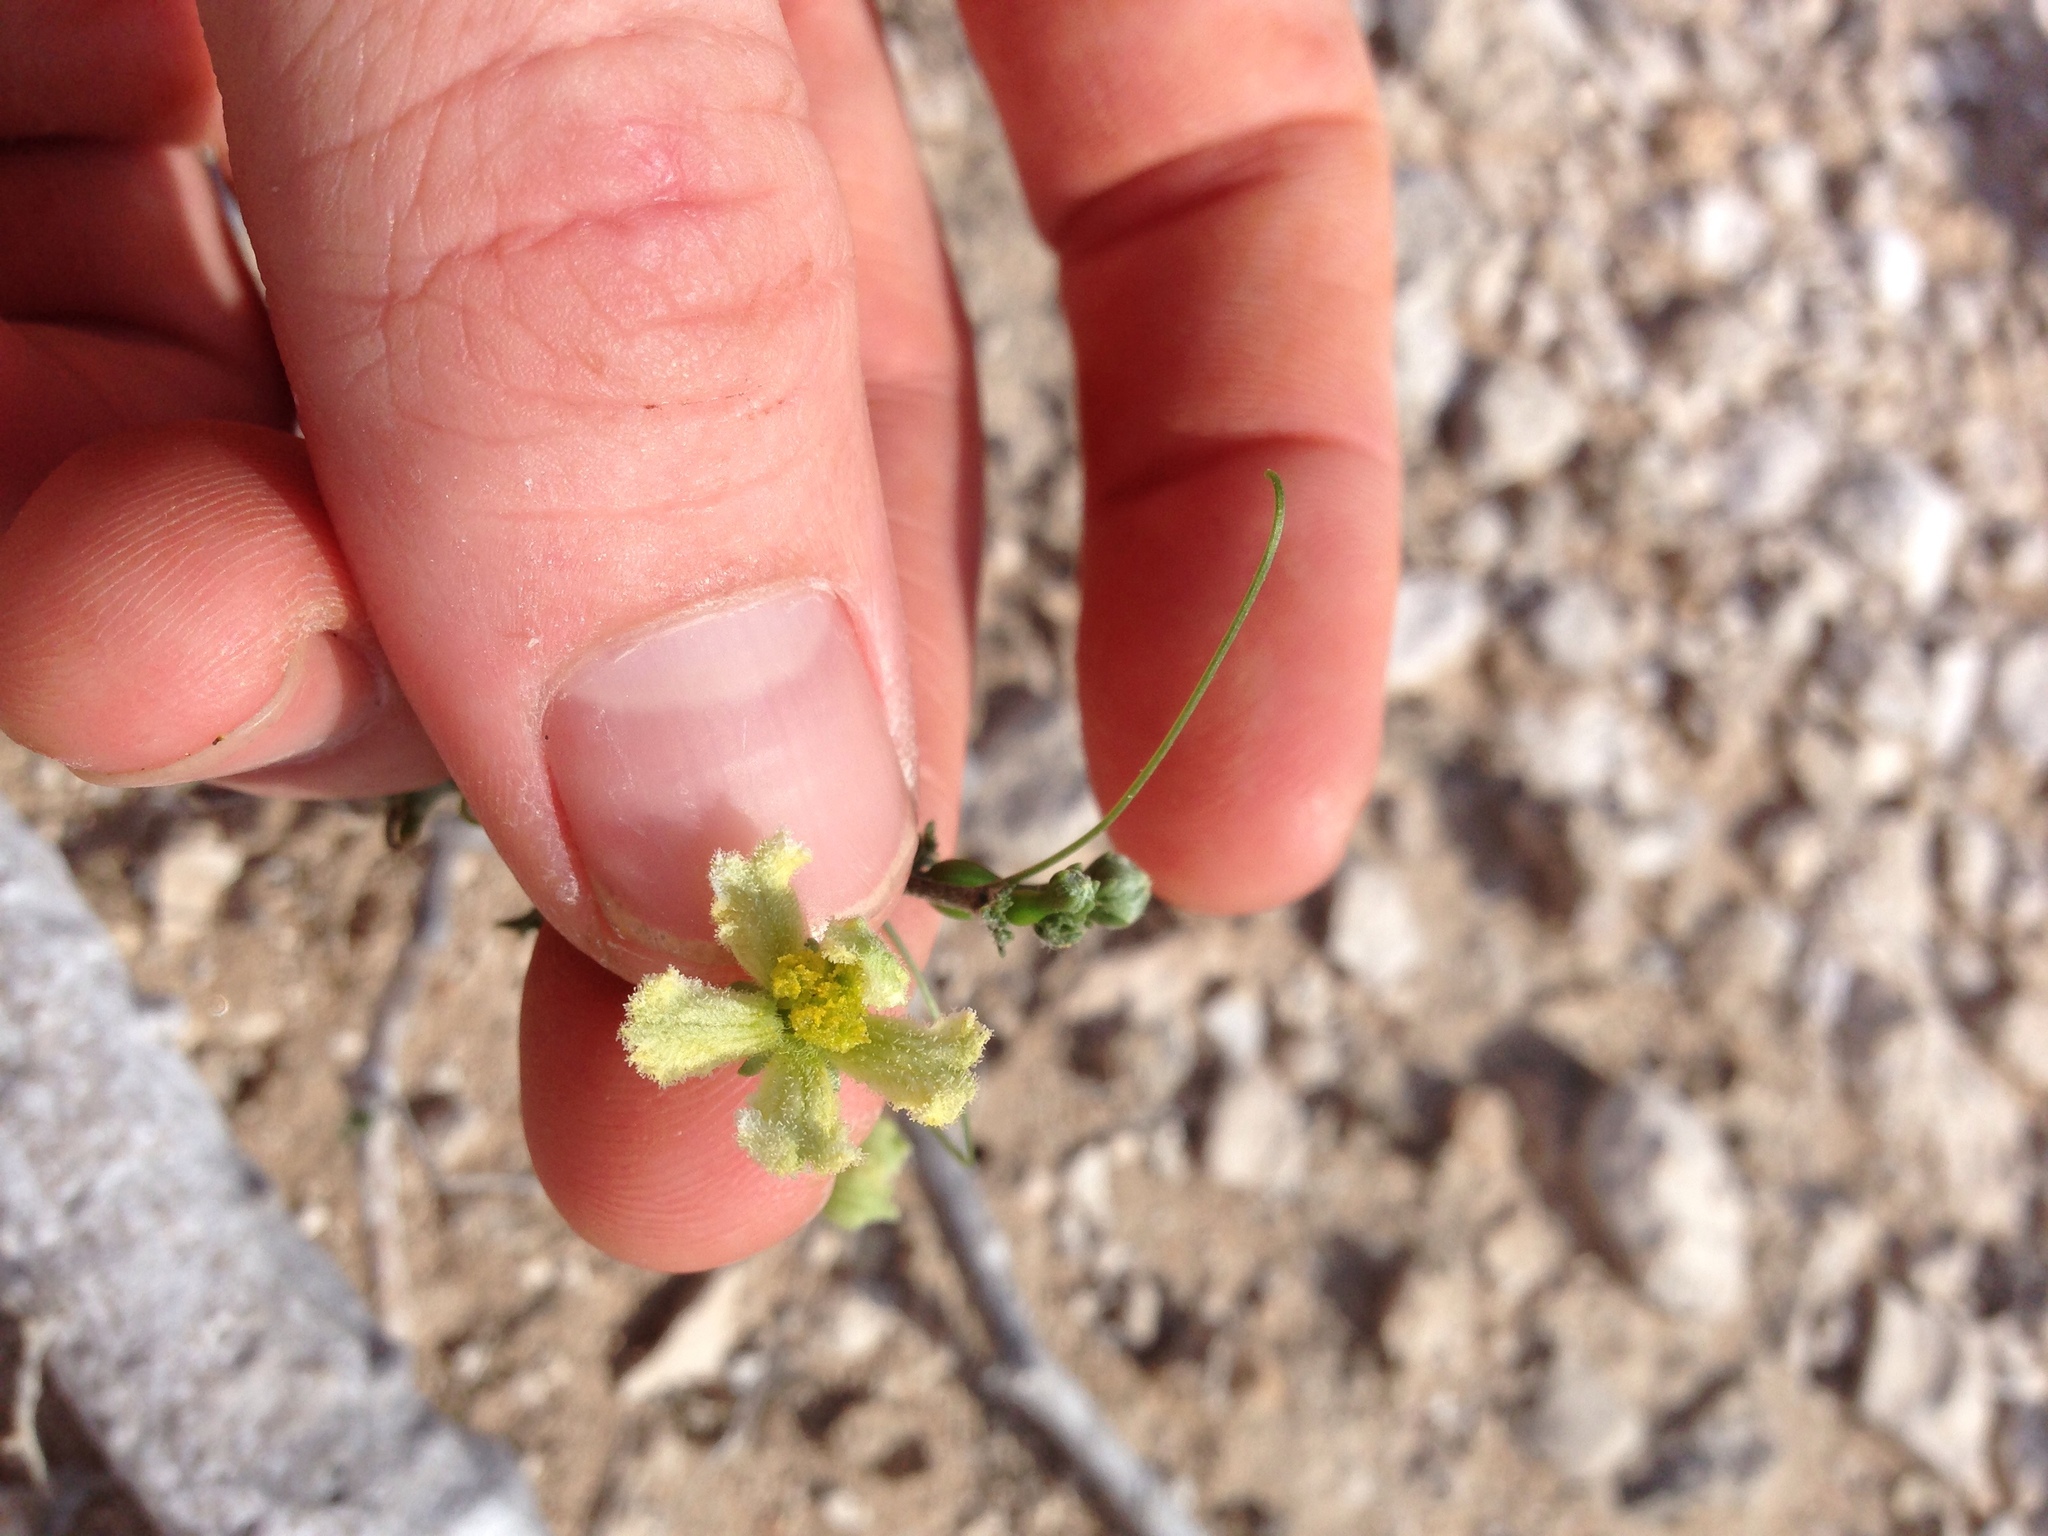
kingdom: Plantae
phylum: Tracheophyta
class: Magnoliopsida
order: Cucurbitales
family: Cucurbitaceae
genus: Ibervillea
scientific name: Ibervillea sonorae
